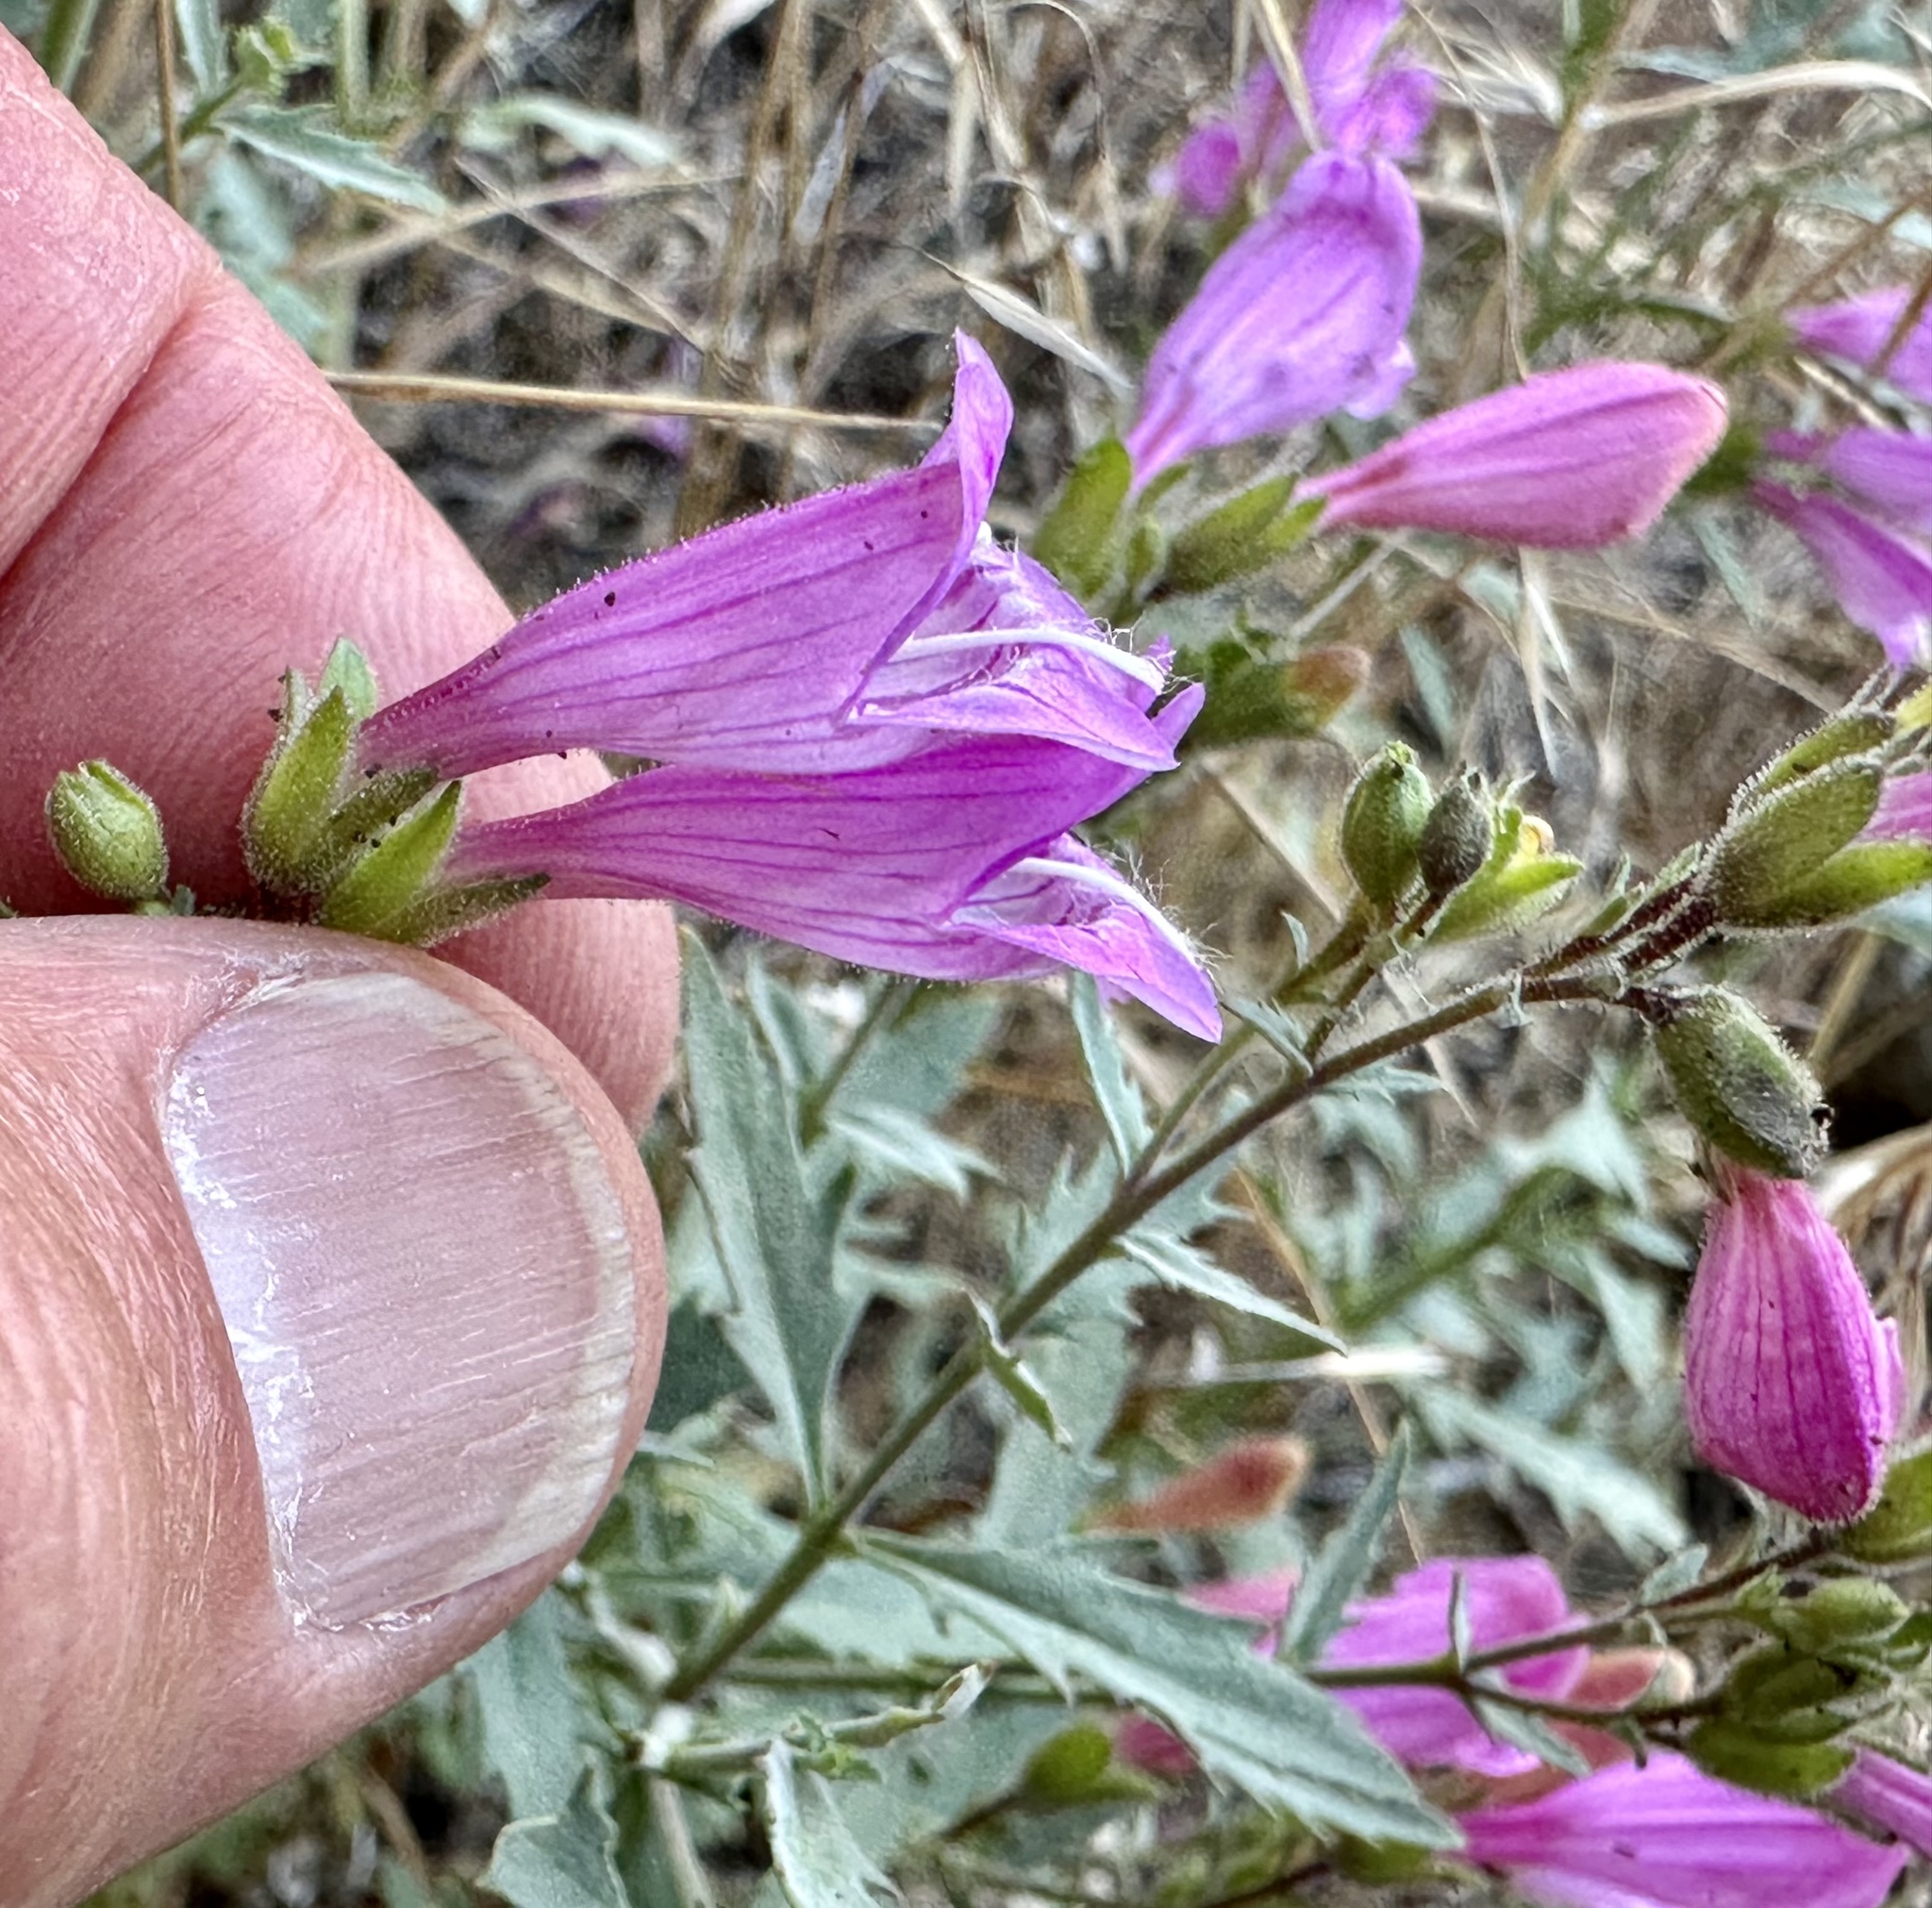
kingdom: Plantae
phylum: Tracheophyta
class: Magnoliopsida
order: Lamiales
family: Plantaginaceae
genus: Penstemon
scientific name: Penstemon richardsonii
